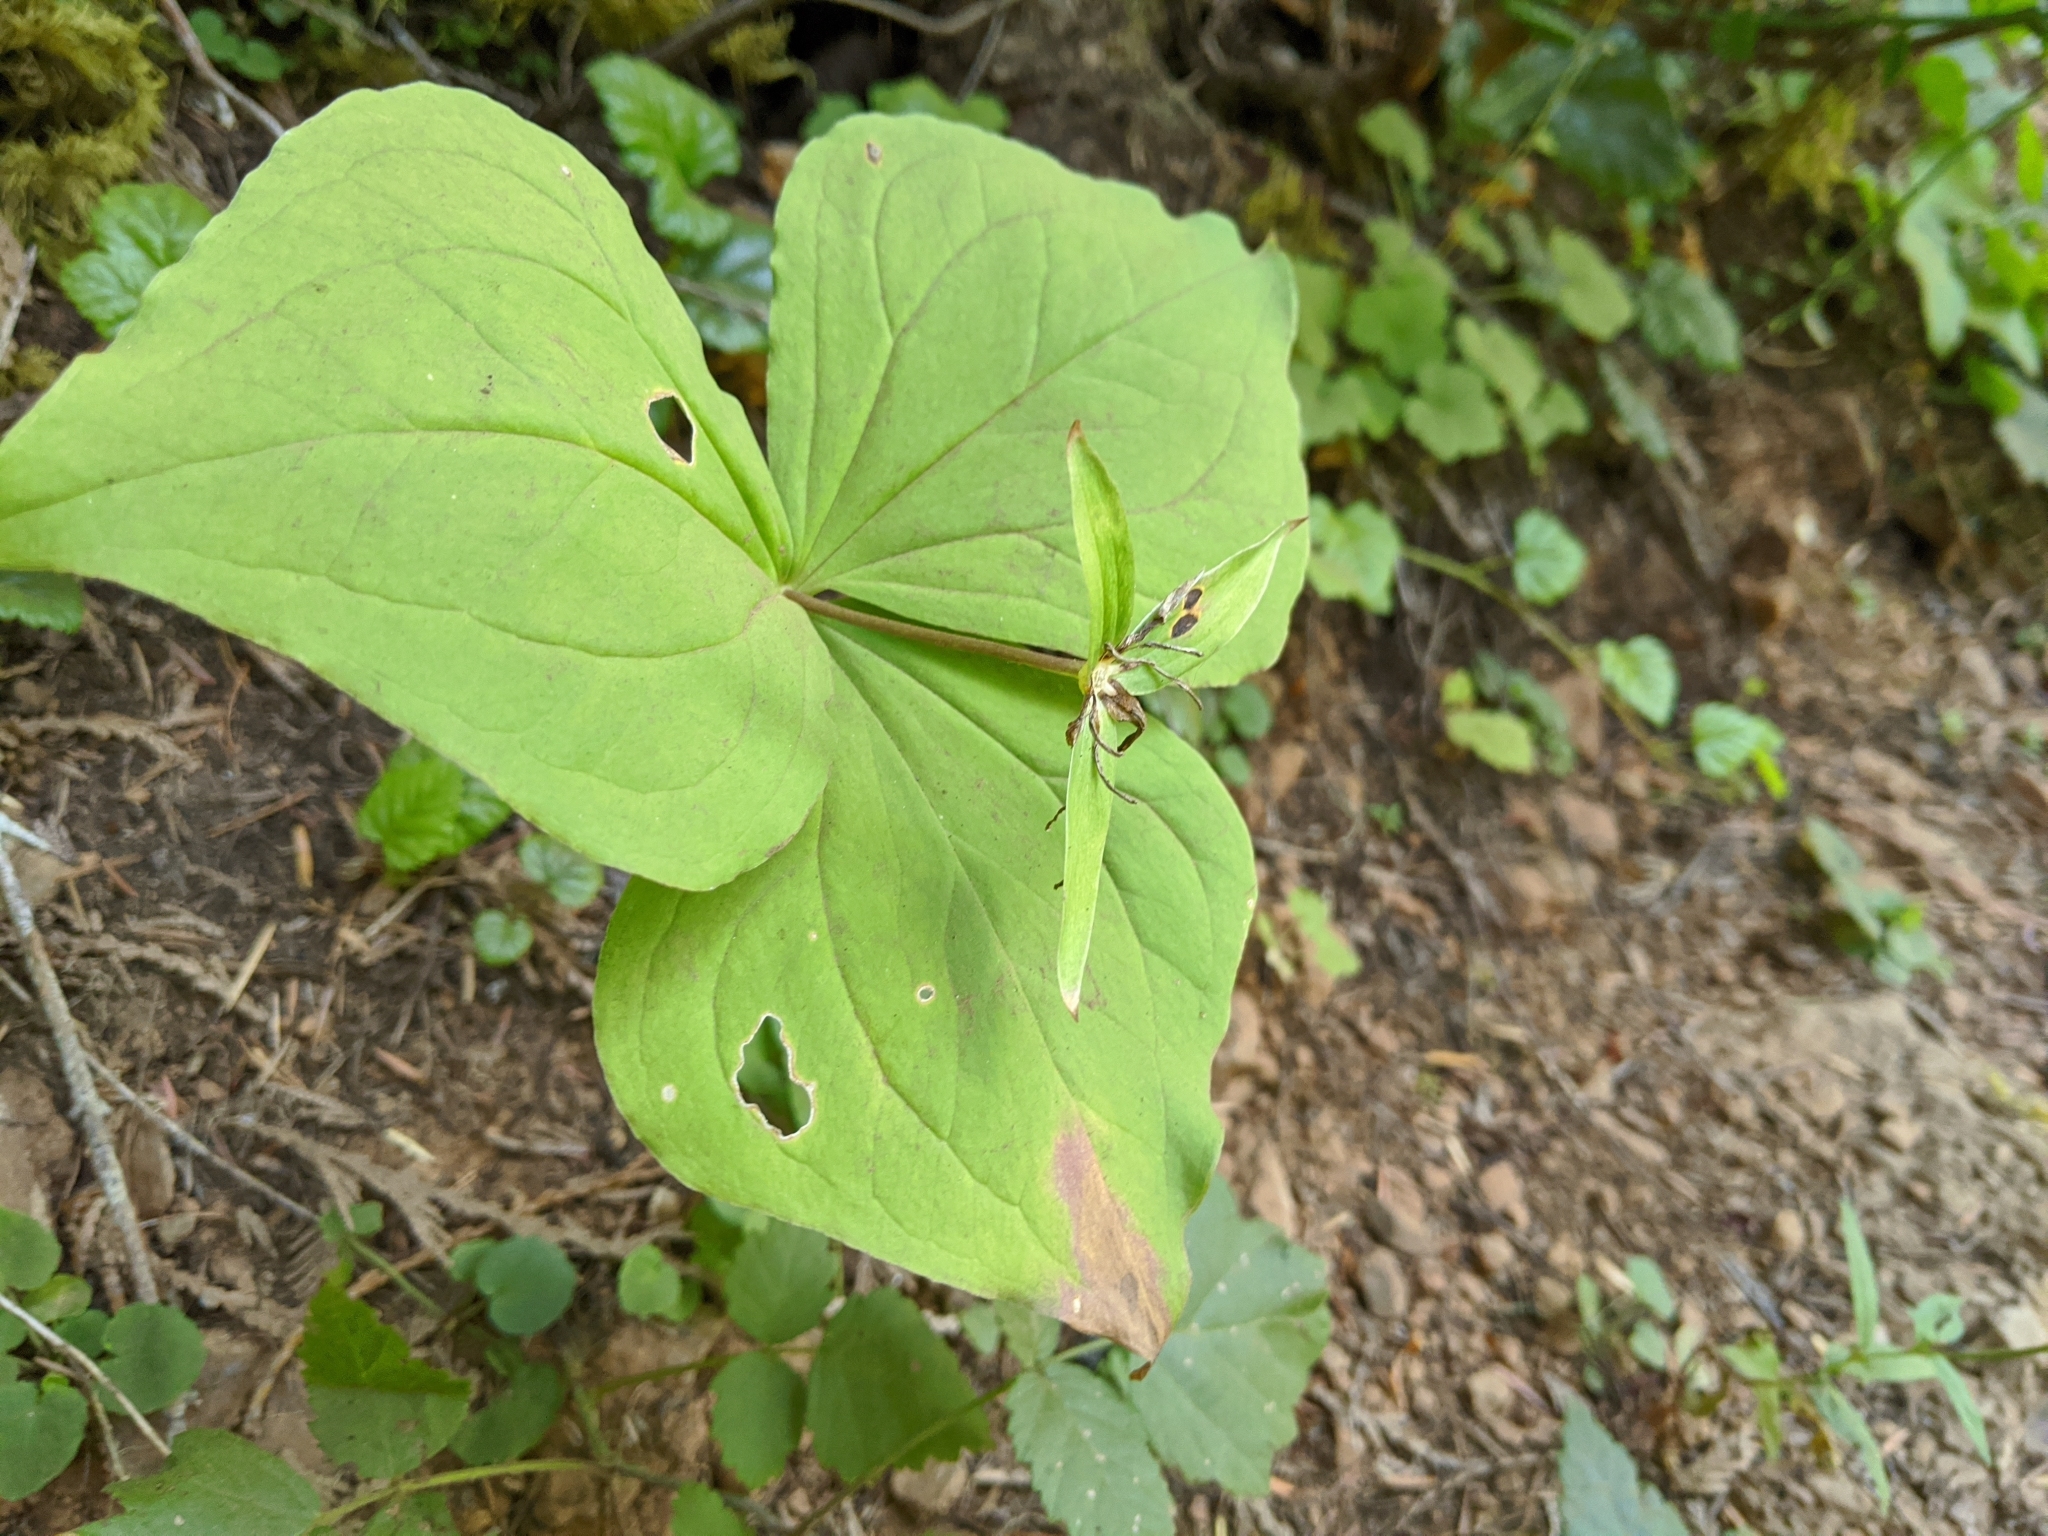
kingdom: Plantae
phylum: Tracheophyta
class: Liliopsida
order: Liliales
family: Melanthiaceae
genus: Trillium
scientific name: Trillium ovatum
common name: Pacific trillium
